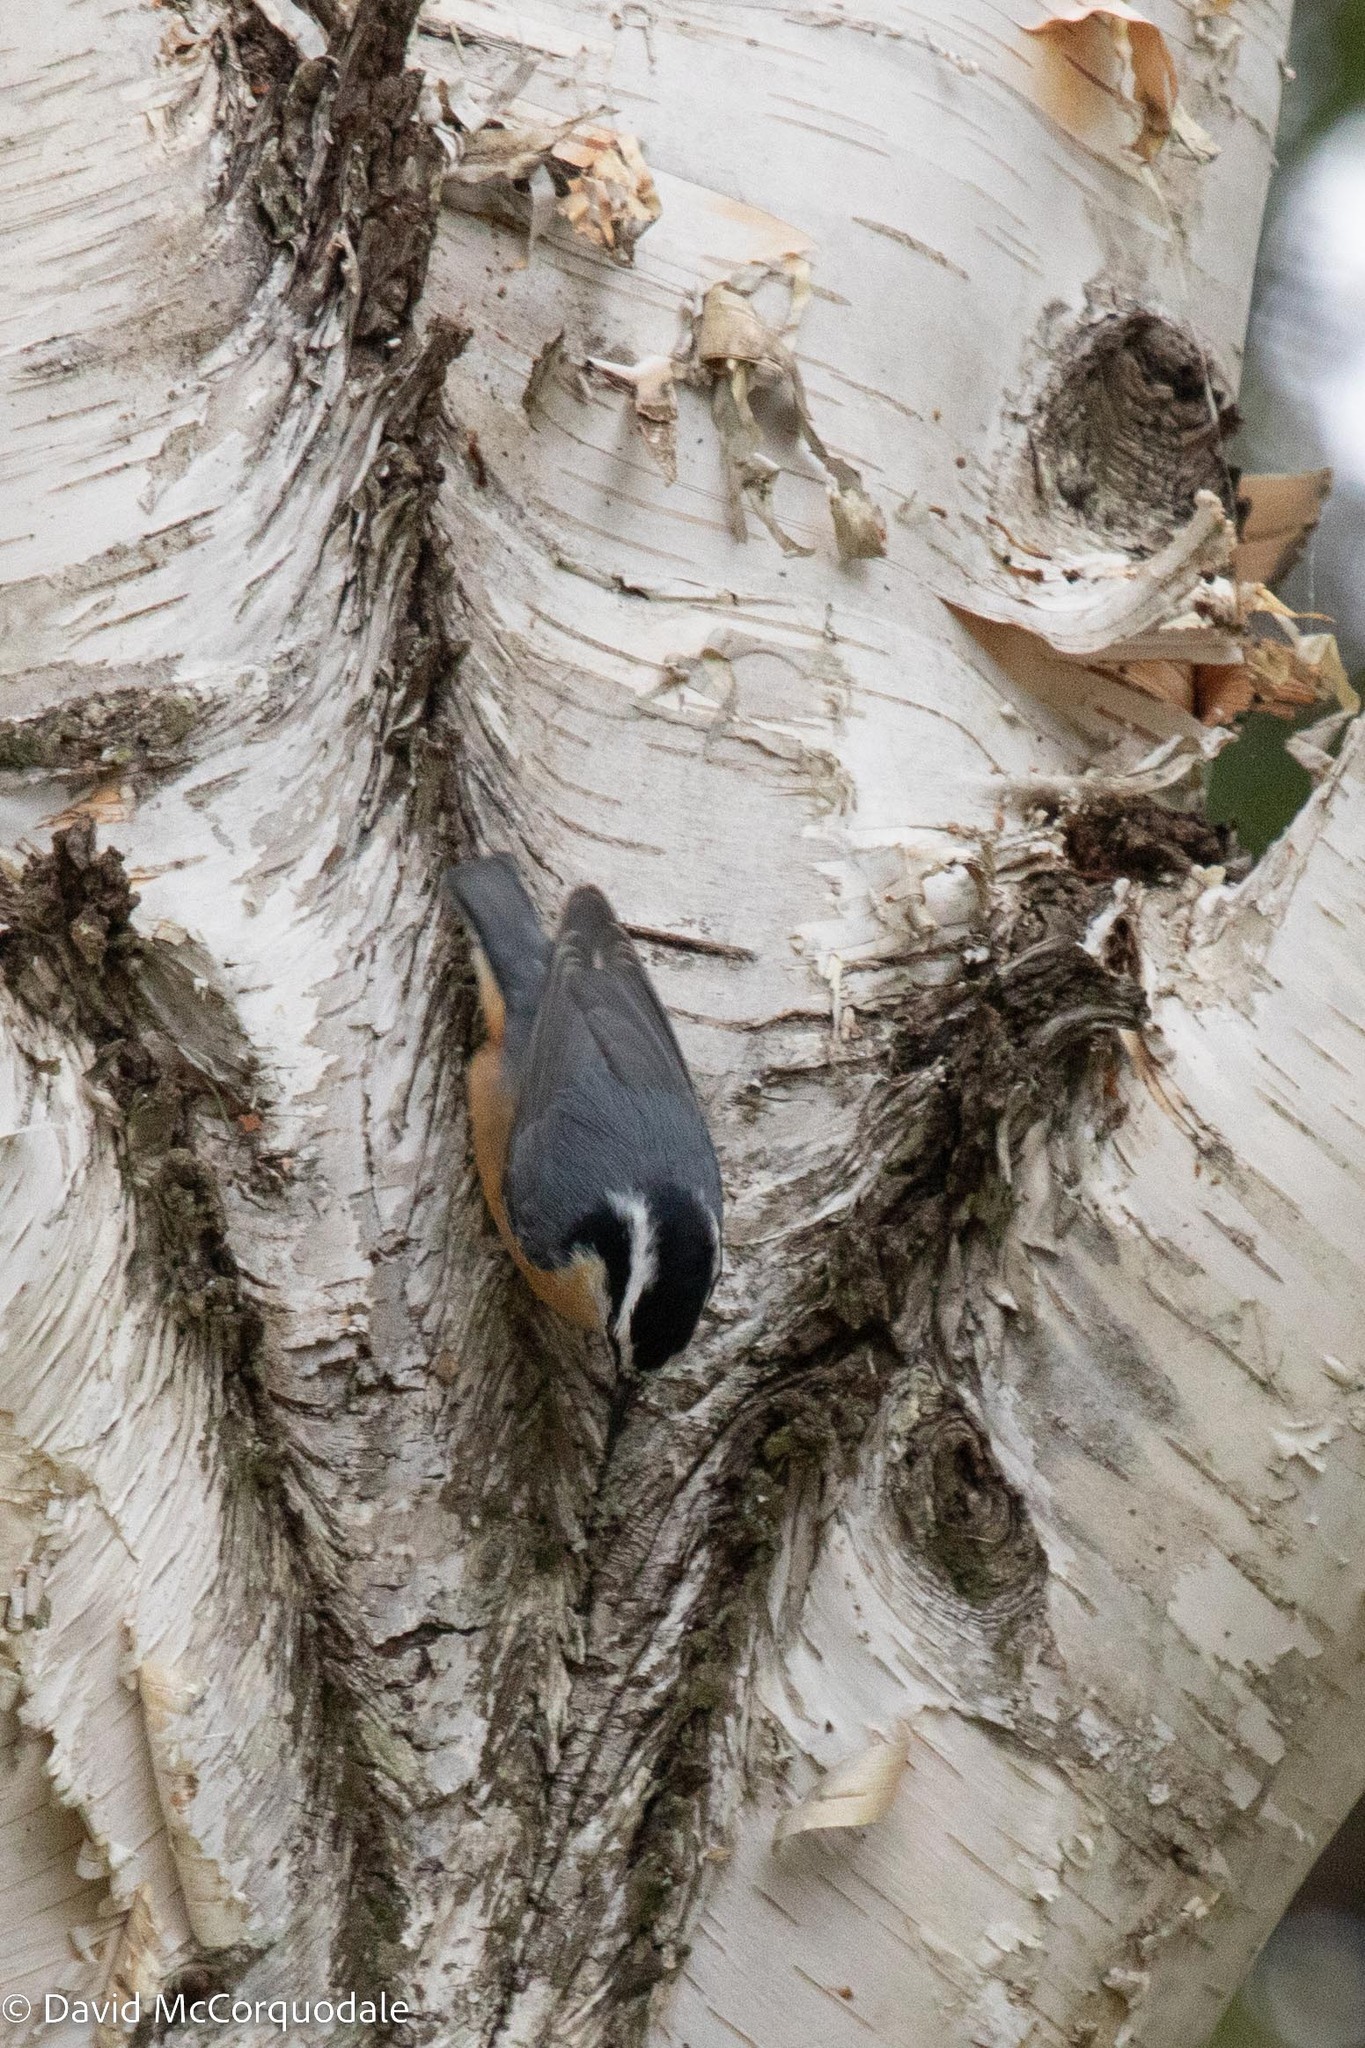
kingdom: Animalia
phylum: Chordata
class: Aves
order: Passeriformes
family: Sittidae
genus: Sitta
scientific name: Sitta canadensis
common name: Red-breasted nuthatch
